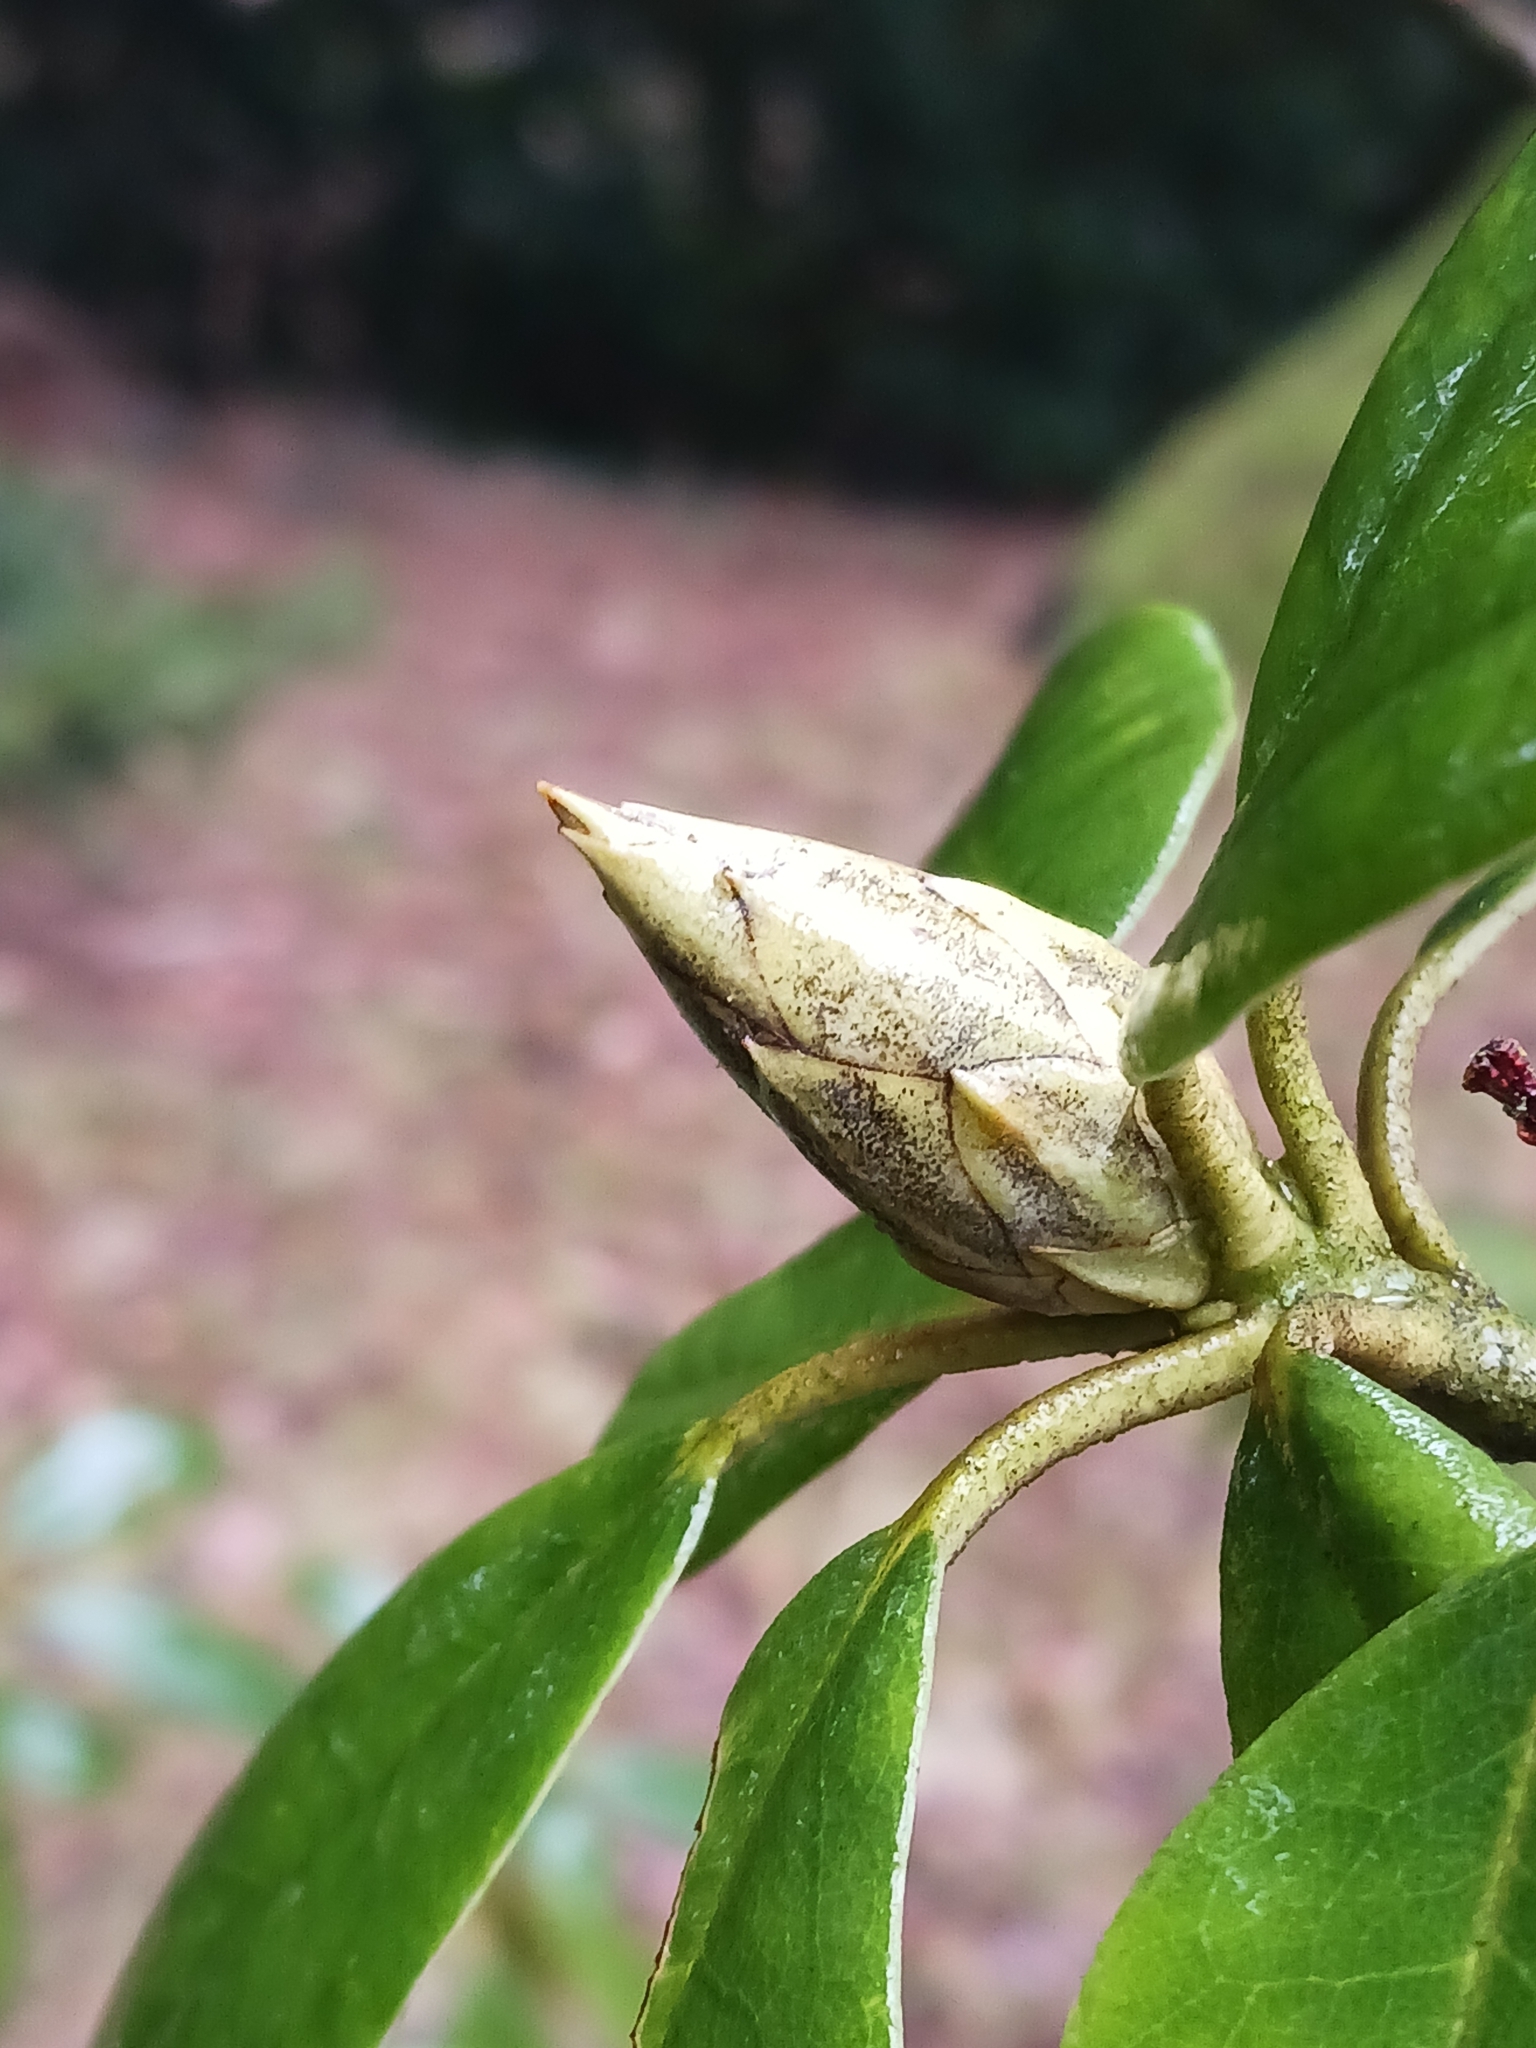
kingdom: Fungi
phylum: Ascomycota
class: Dothideomycetes
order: Pleosporales
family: Melanommataceae
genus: Seifertia
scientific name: Seifertia azaleae
